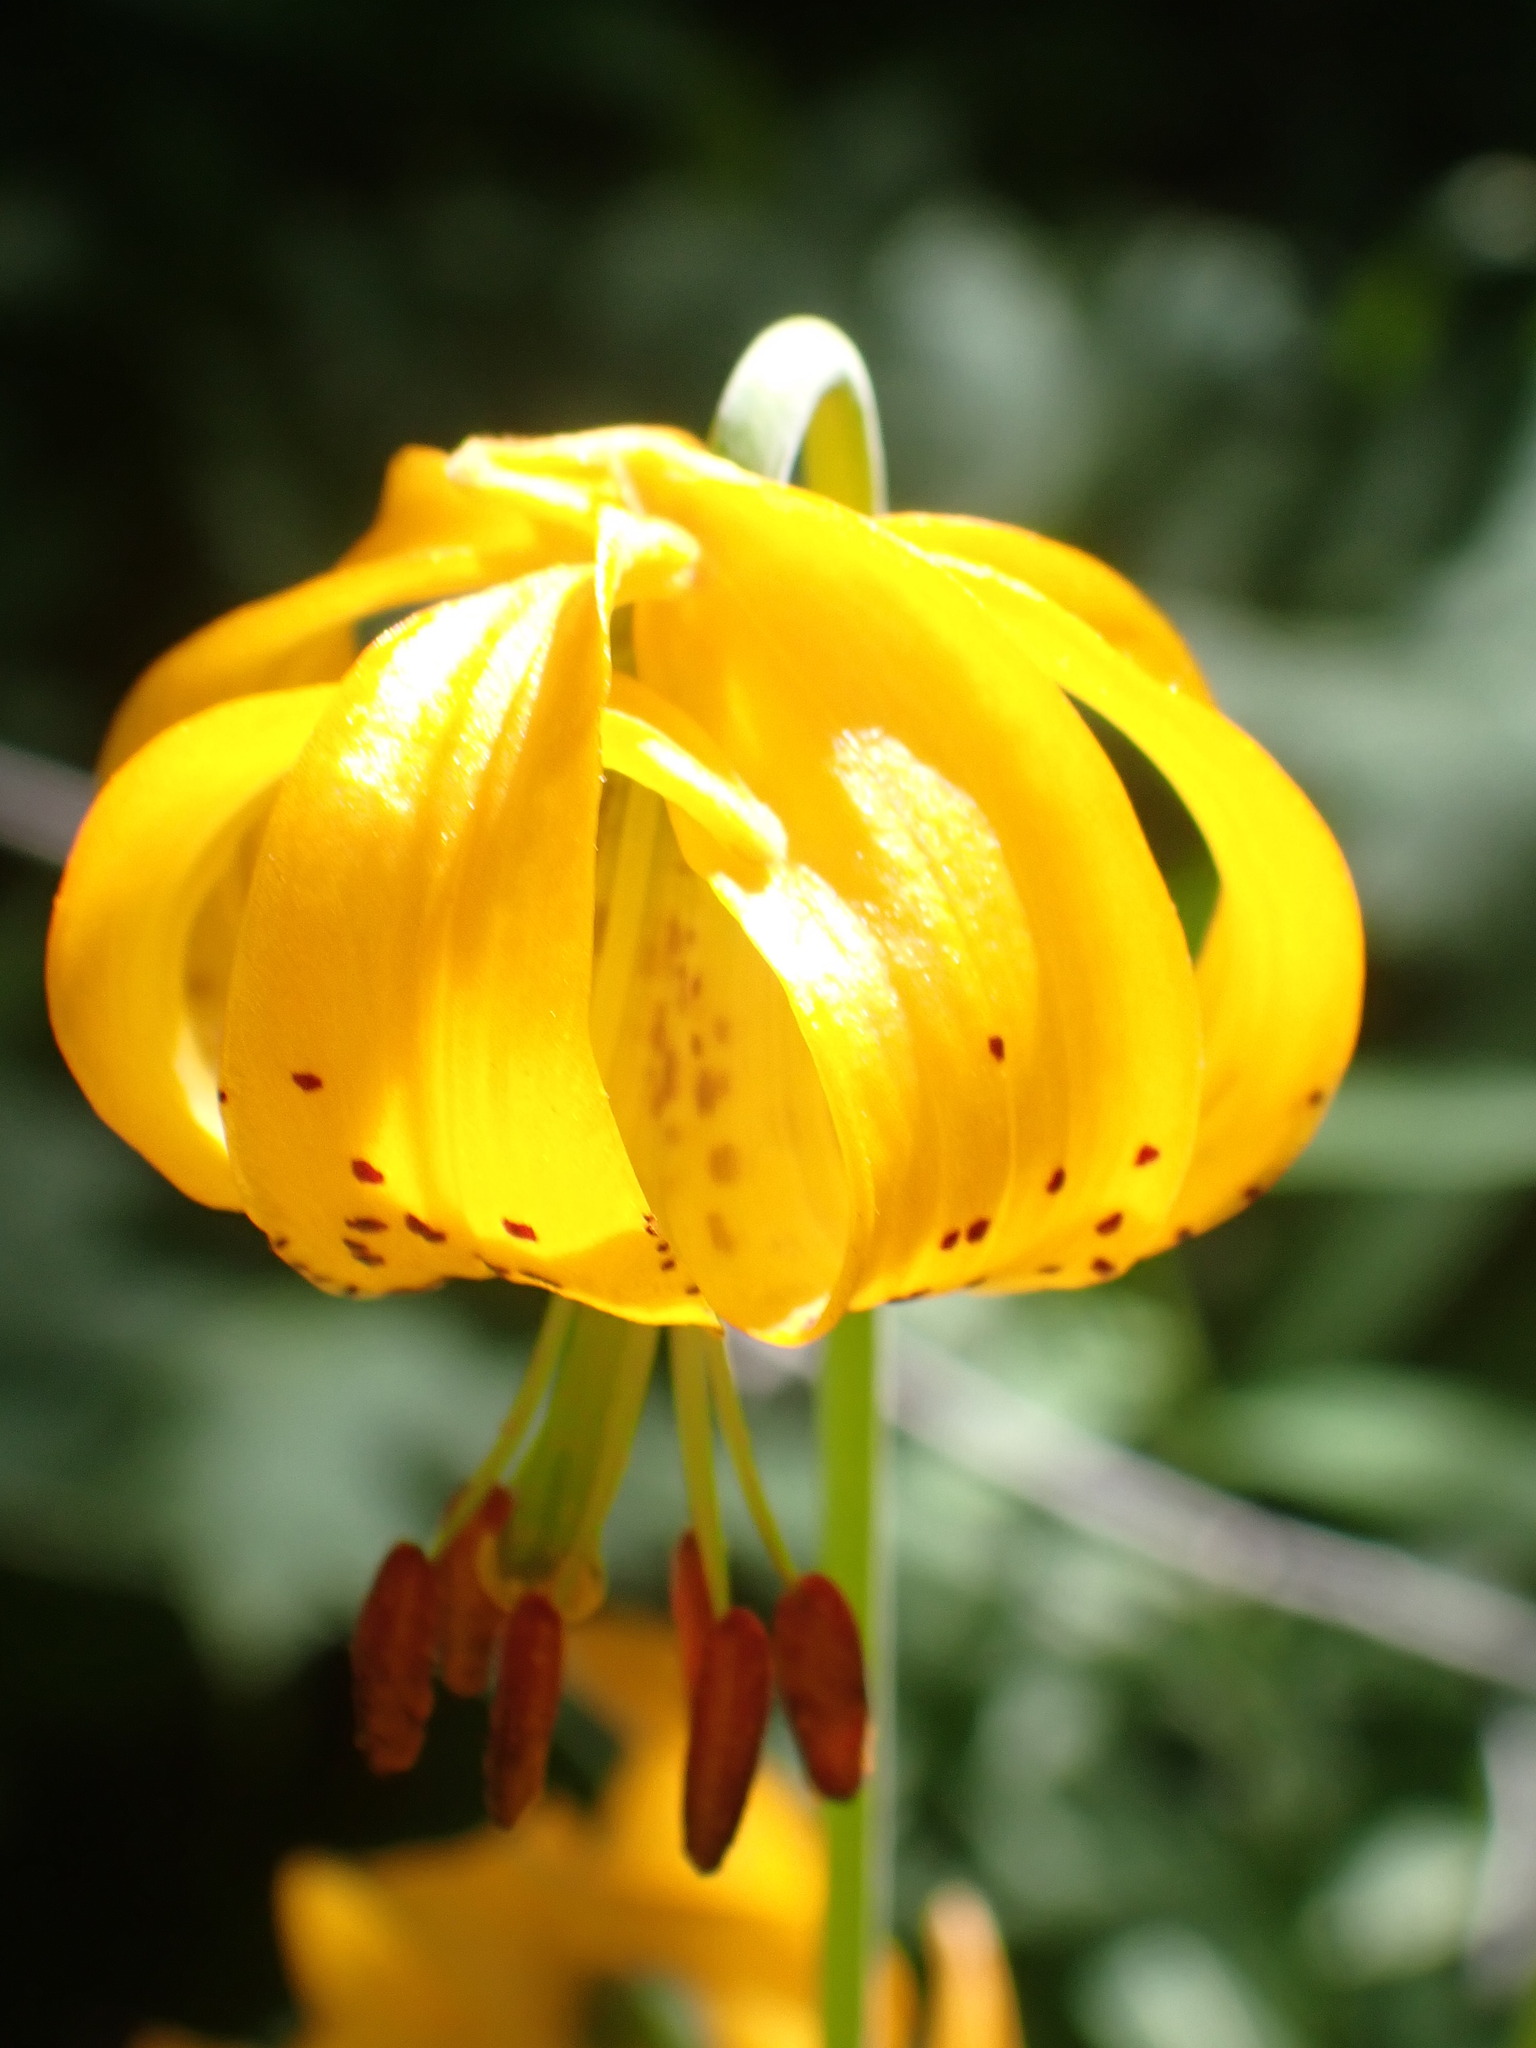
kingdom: Plantae
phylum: Tracheophyta
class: Liliopsida
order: Liliales
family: Liliaceae
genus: Lilium
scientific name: Lilium columbianum
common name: Columbia lily
